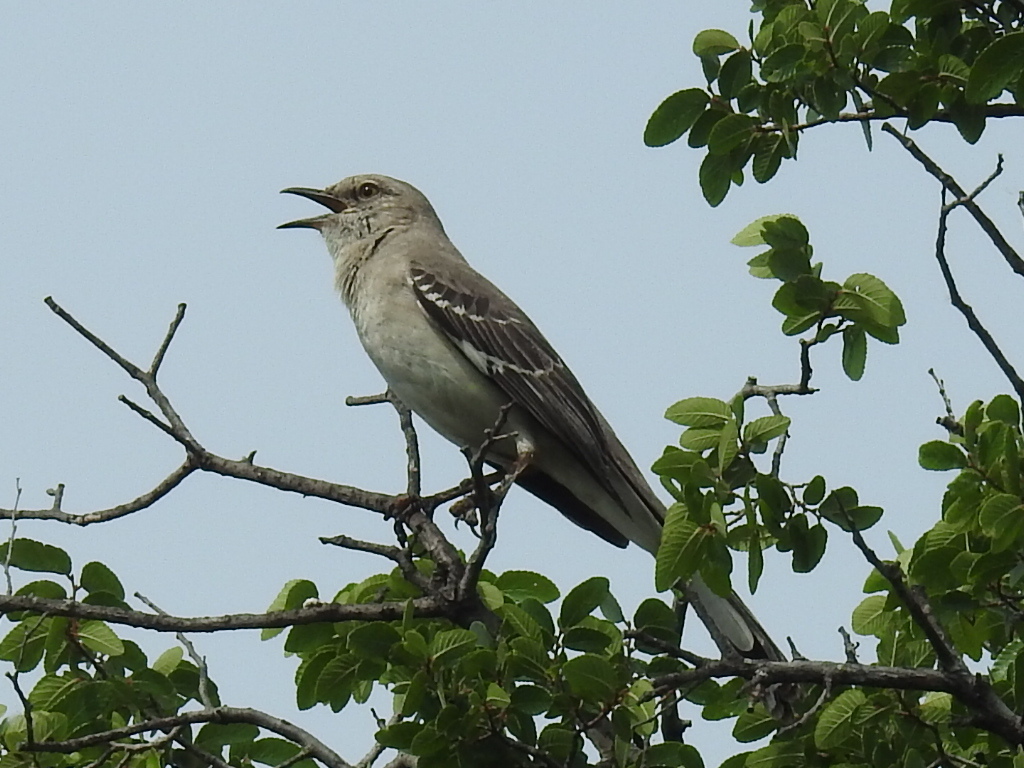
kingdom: Animalia
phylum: Chordata
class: Aves
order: Passeriformes
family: Mimidae
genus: Mimus
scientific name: Mimus polyglottos
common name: Northern mockingbird
